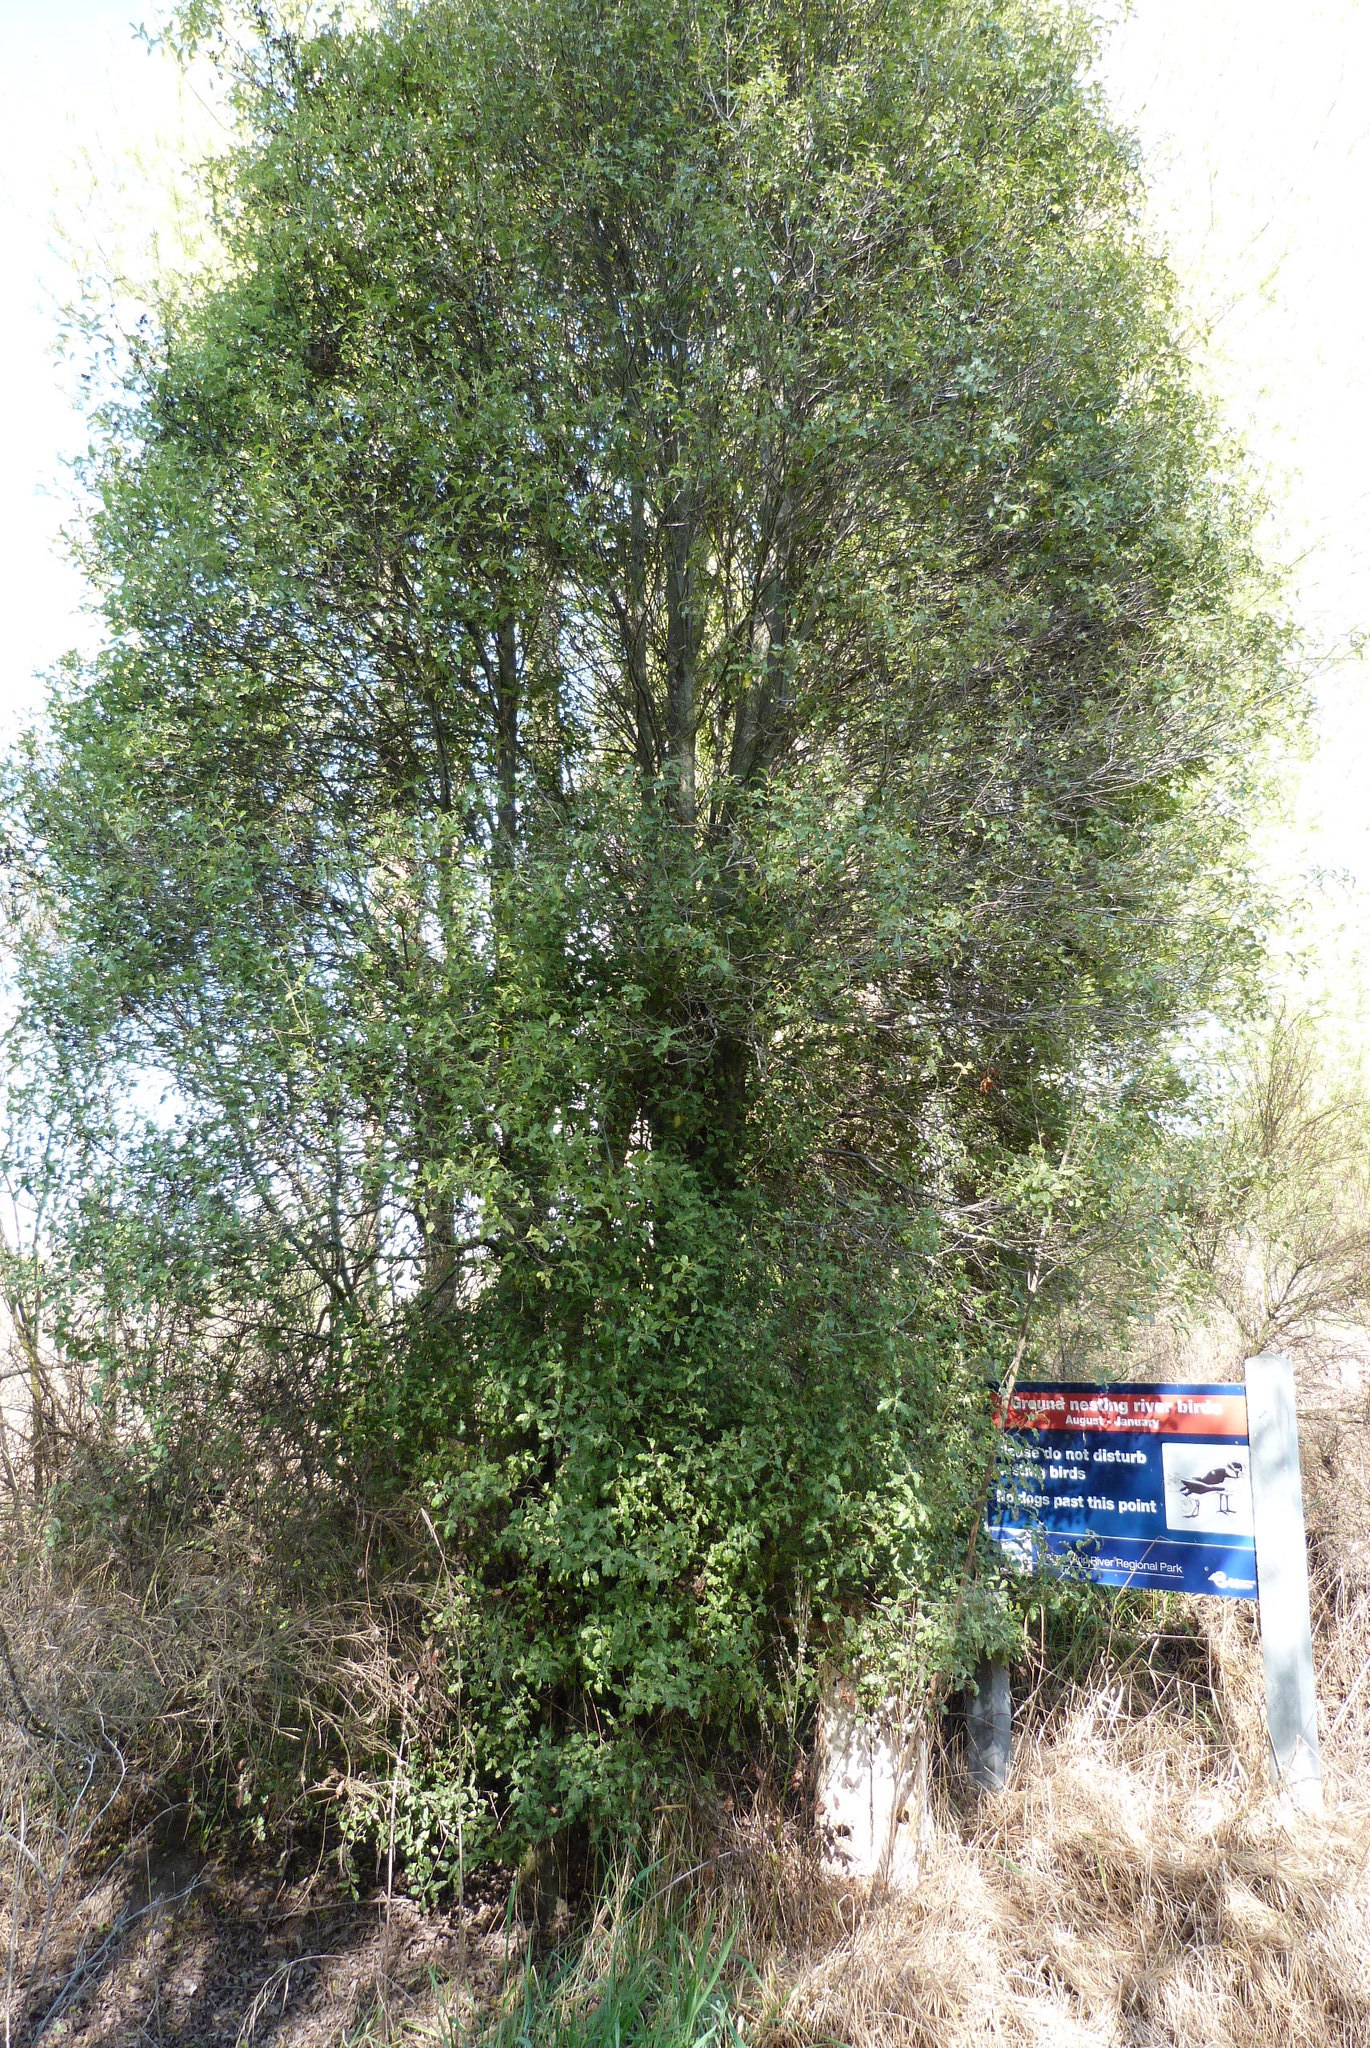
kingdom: Plantae
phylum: Tracheophyta
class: Magnoliopsida
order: Apiales
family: Pittosporaceae
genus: Pittosporum
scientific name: Pittosporum tenuifolium
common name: Kohuhu
